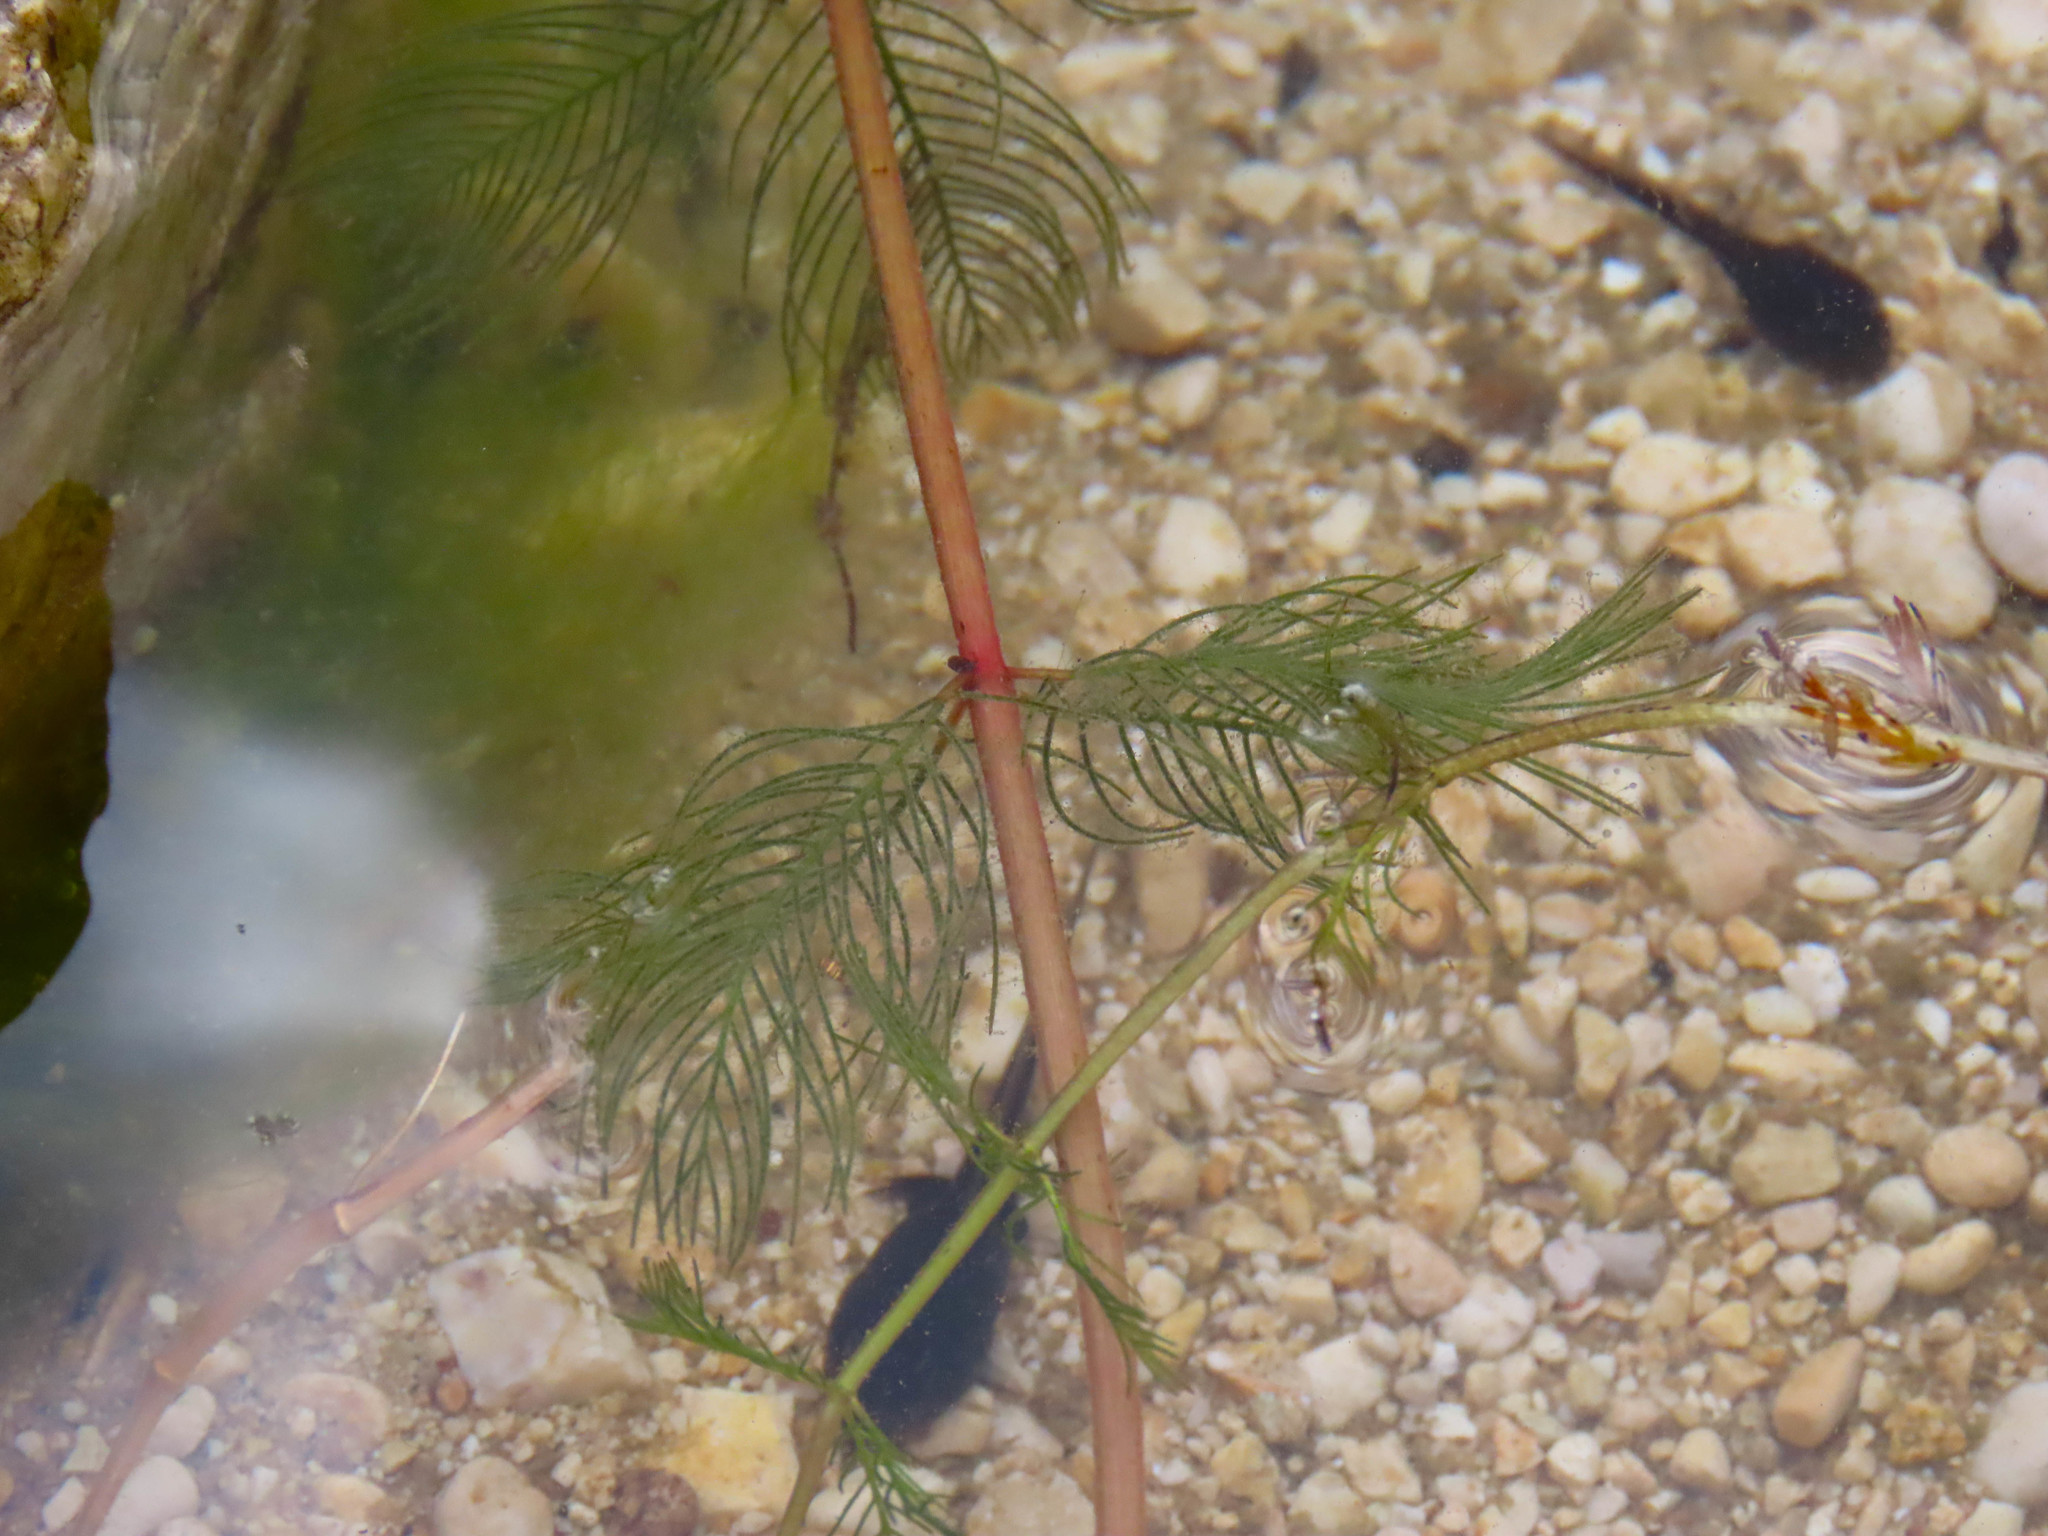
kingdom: Plantae
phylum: Tracheophyta
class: Magnoliopsida
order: Saxifragales
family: Haloragaceae
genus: Myriophyllum
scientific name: Myriophyllum spicatum
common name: Spiked water-milfoil
